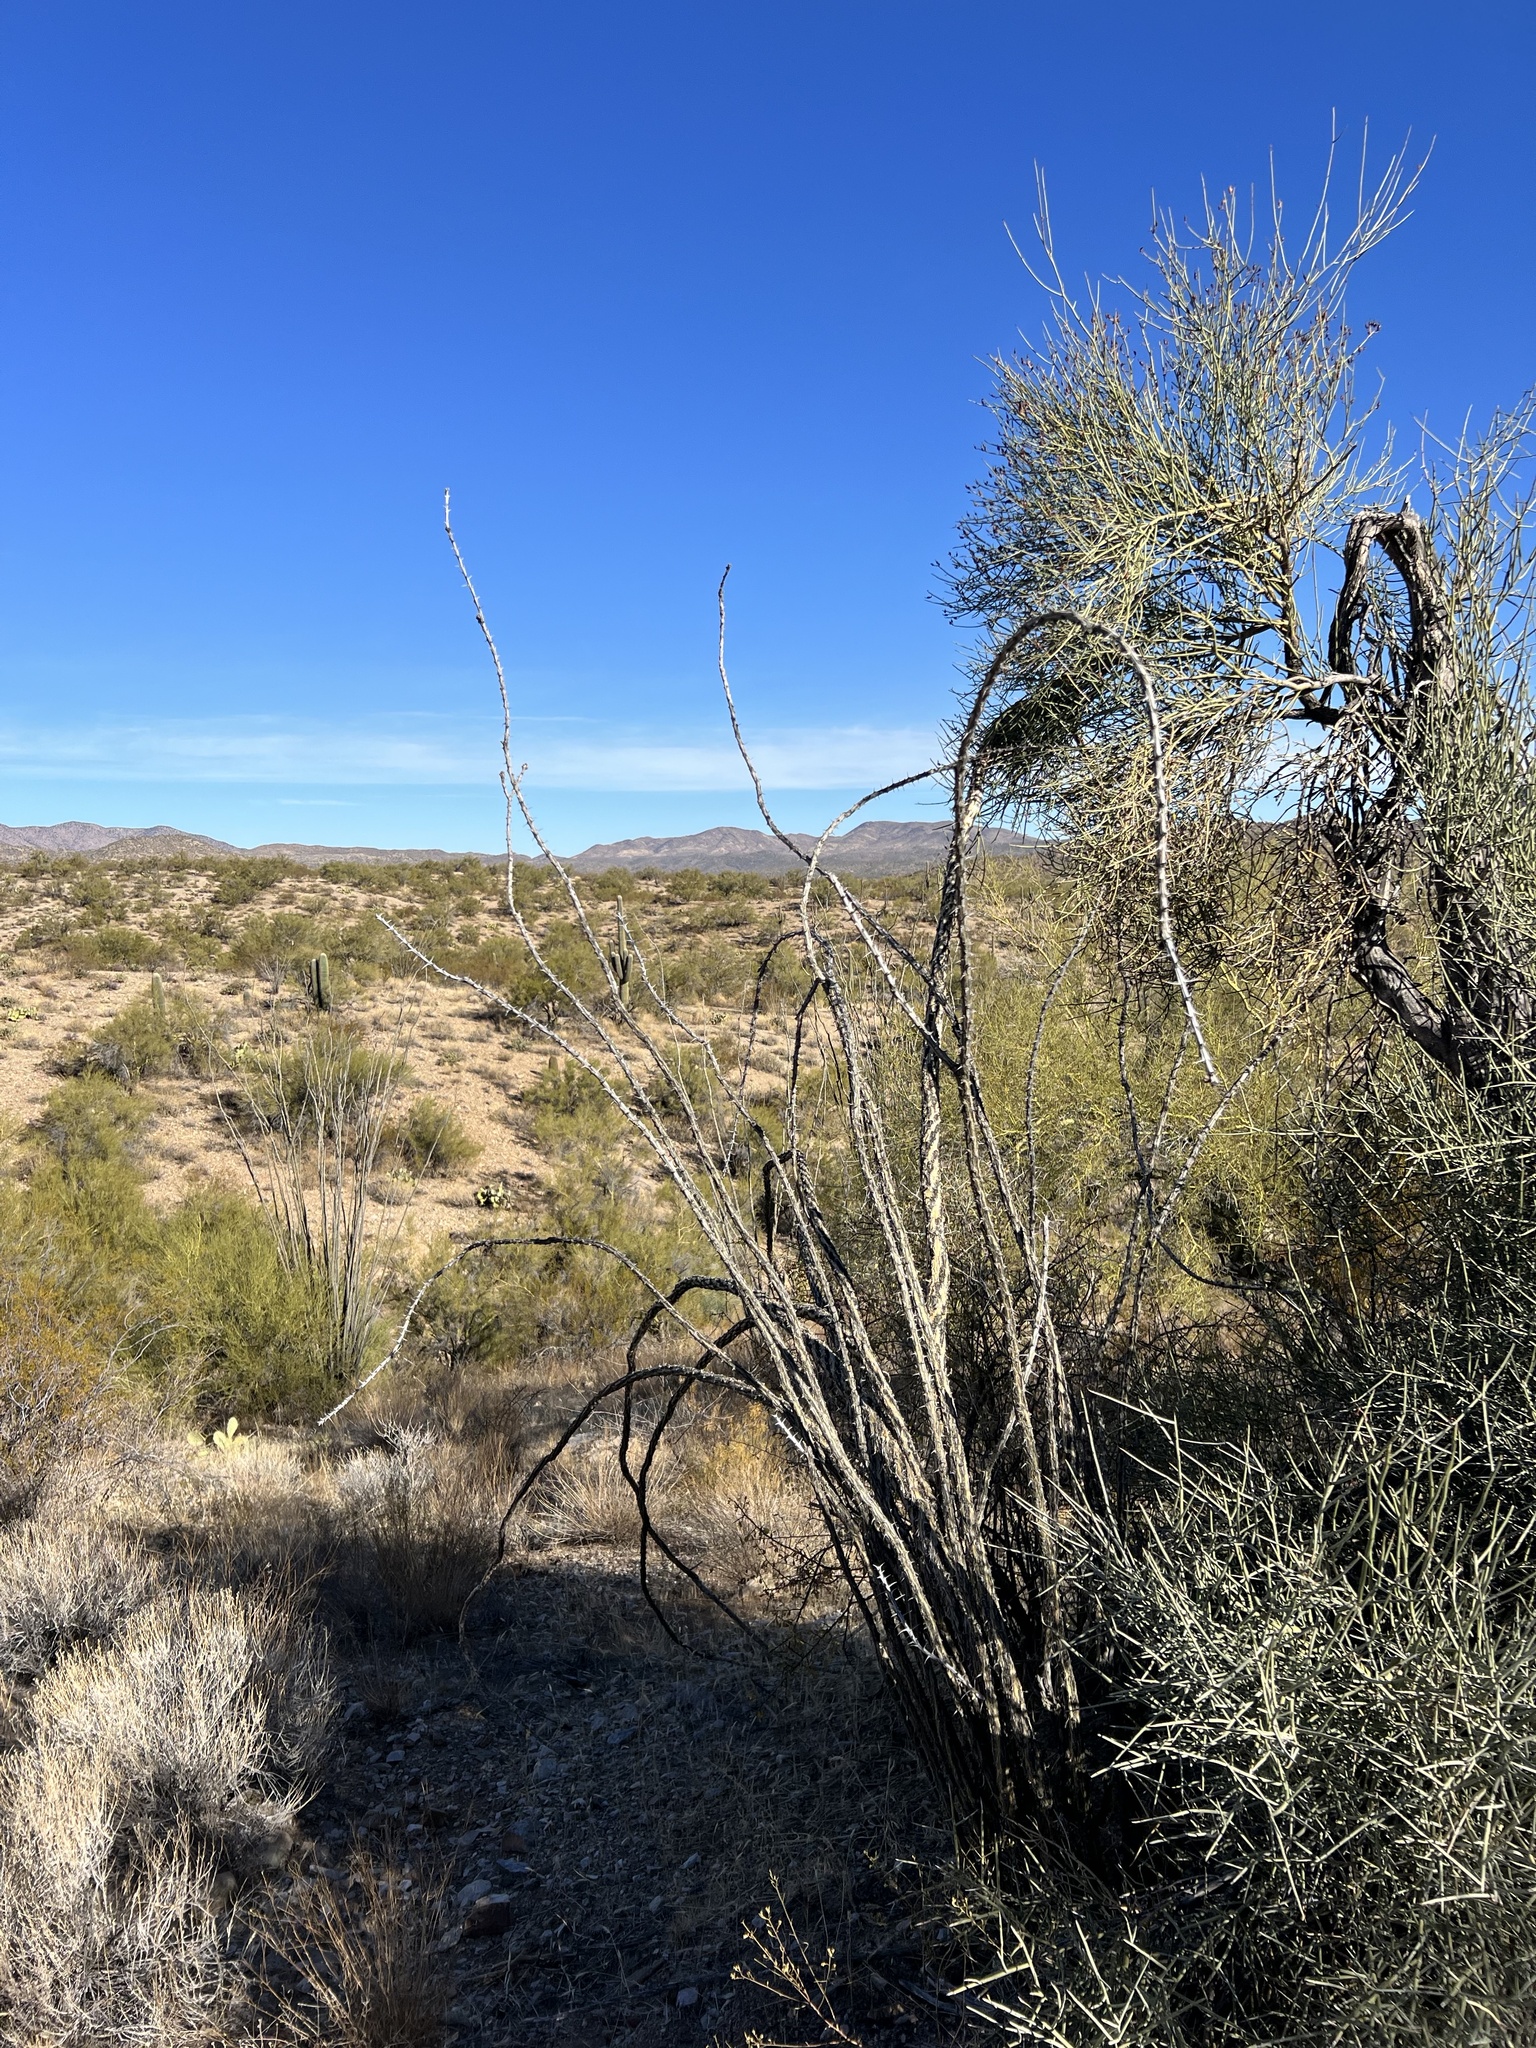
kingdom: Plantae
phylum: Tracheophyta
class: Magnoliopsida
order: Ericales
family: Fouquieriaceae
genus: Fouquieria
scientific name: Fouquieria splendens
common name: Vine-cactus
